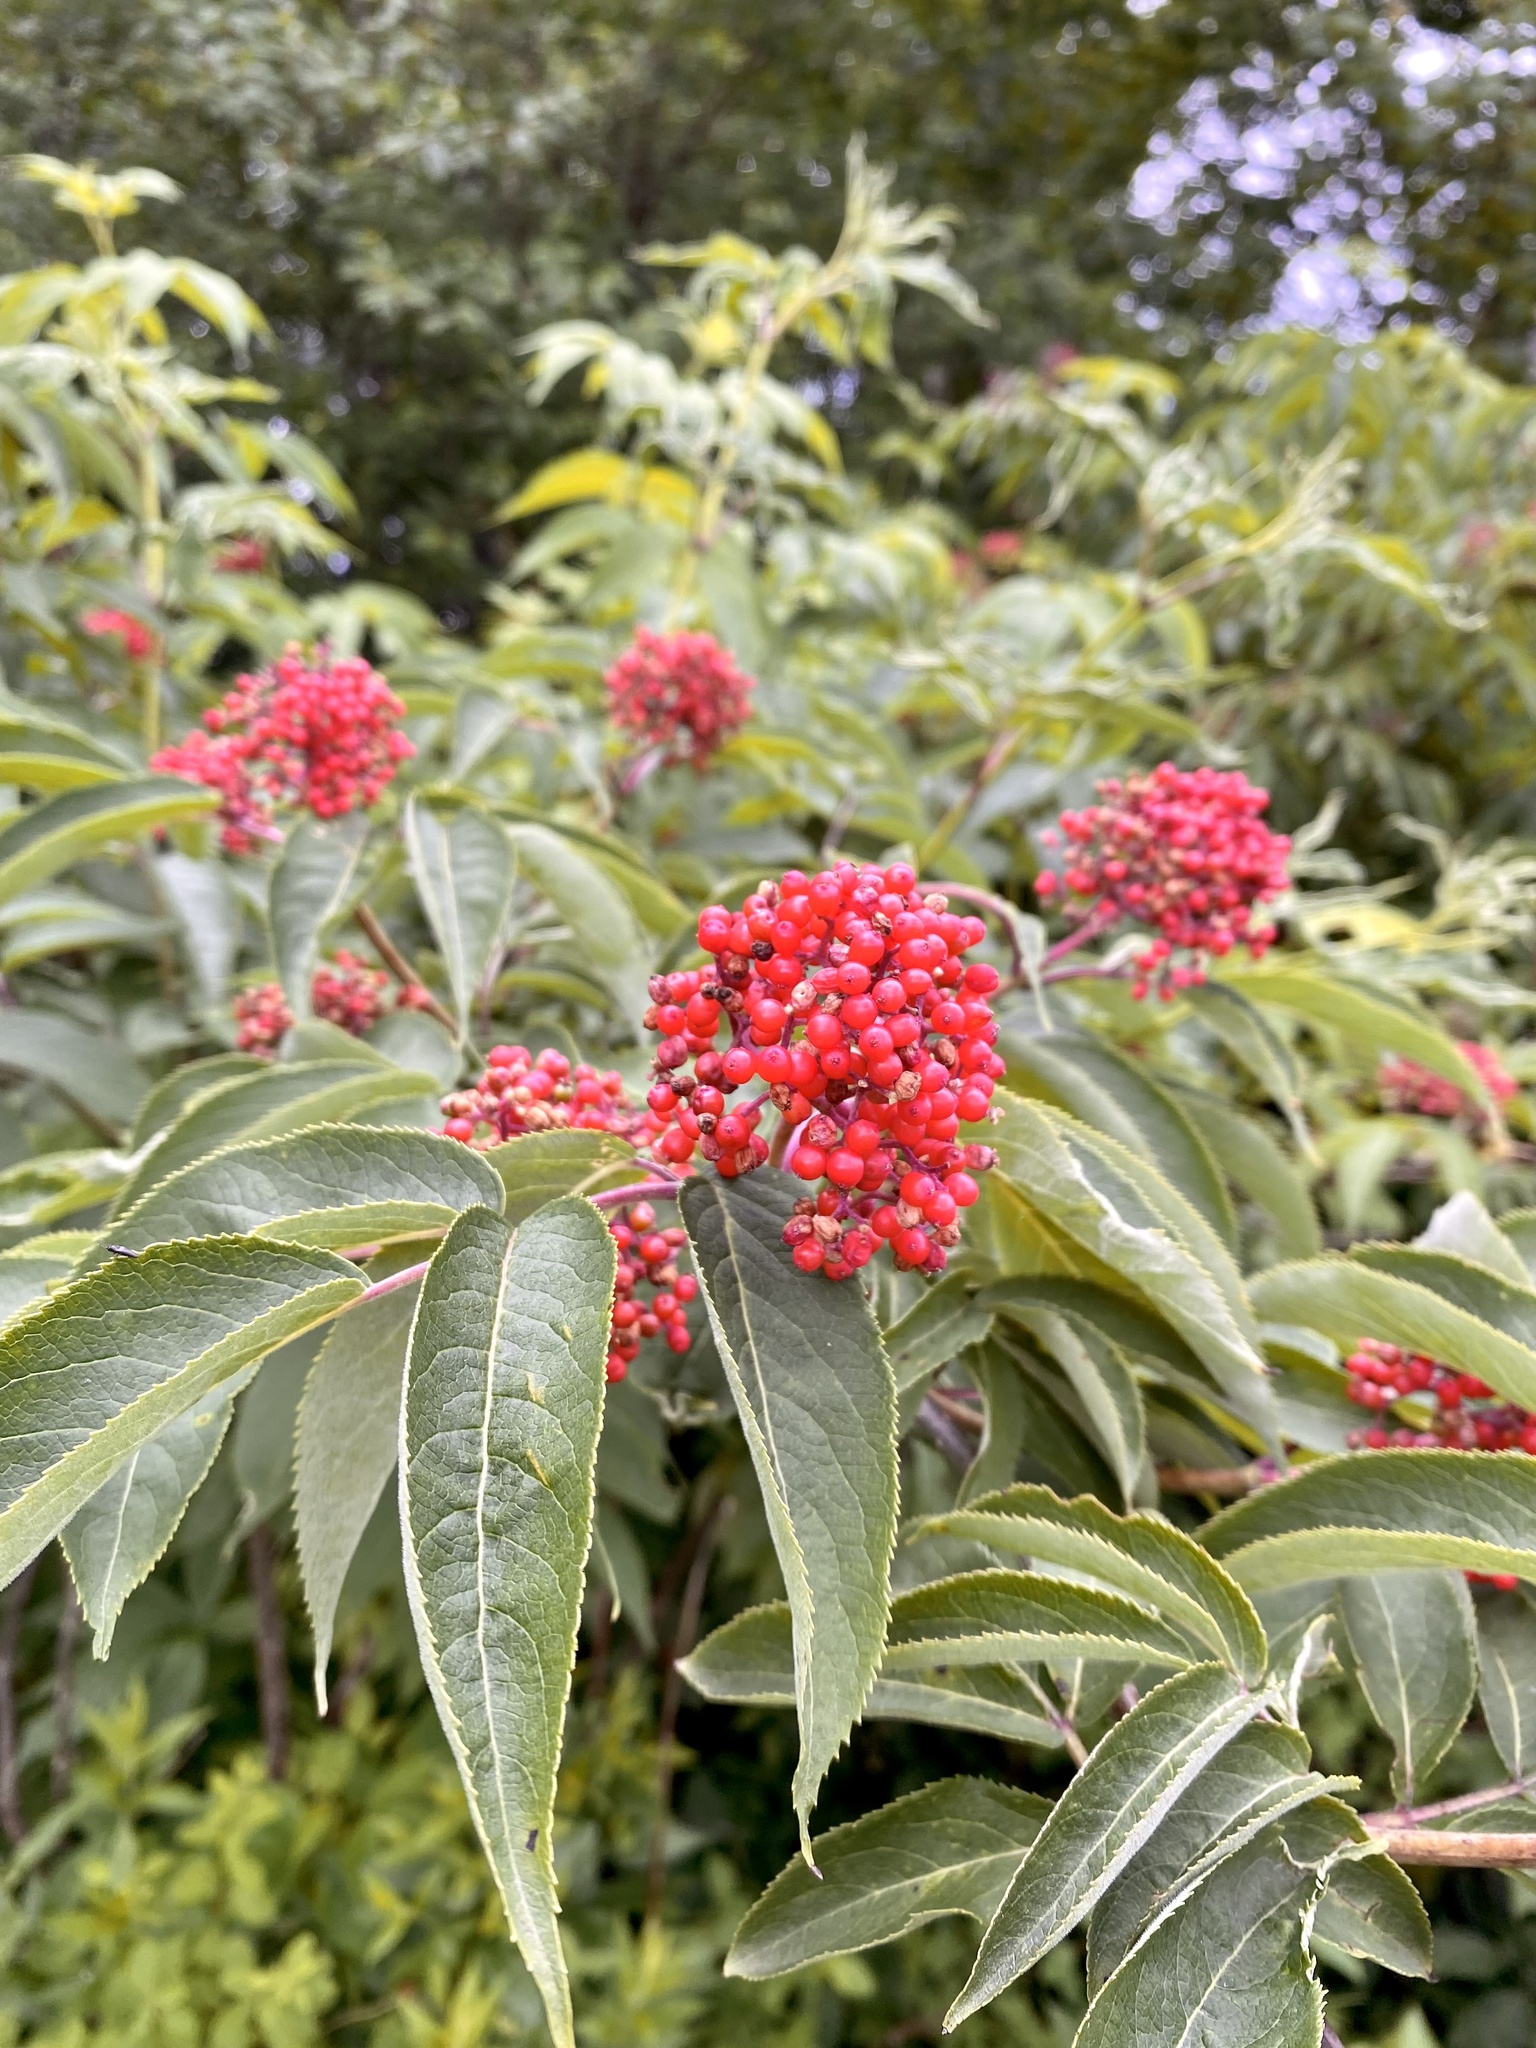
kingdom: Plantae
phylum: Tracheophyta
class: Magnoliopsida
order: Dipsacales
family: Viburnaceae
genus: Sambucus
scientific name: Sambucus racemosa
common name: Red-berried elder
